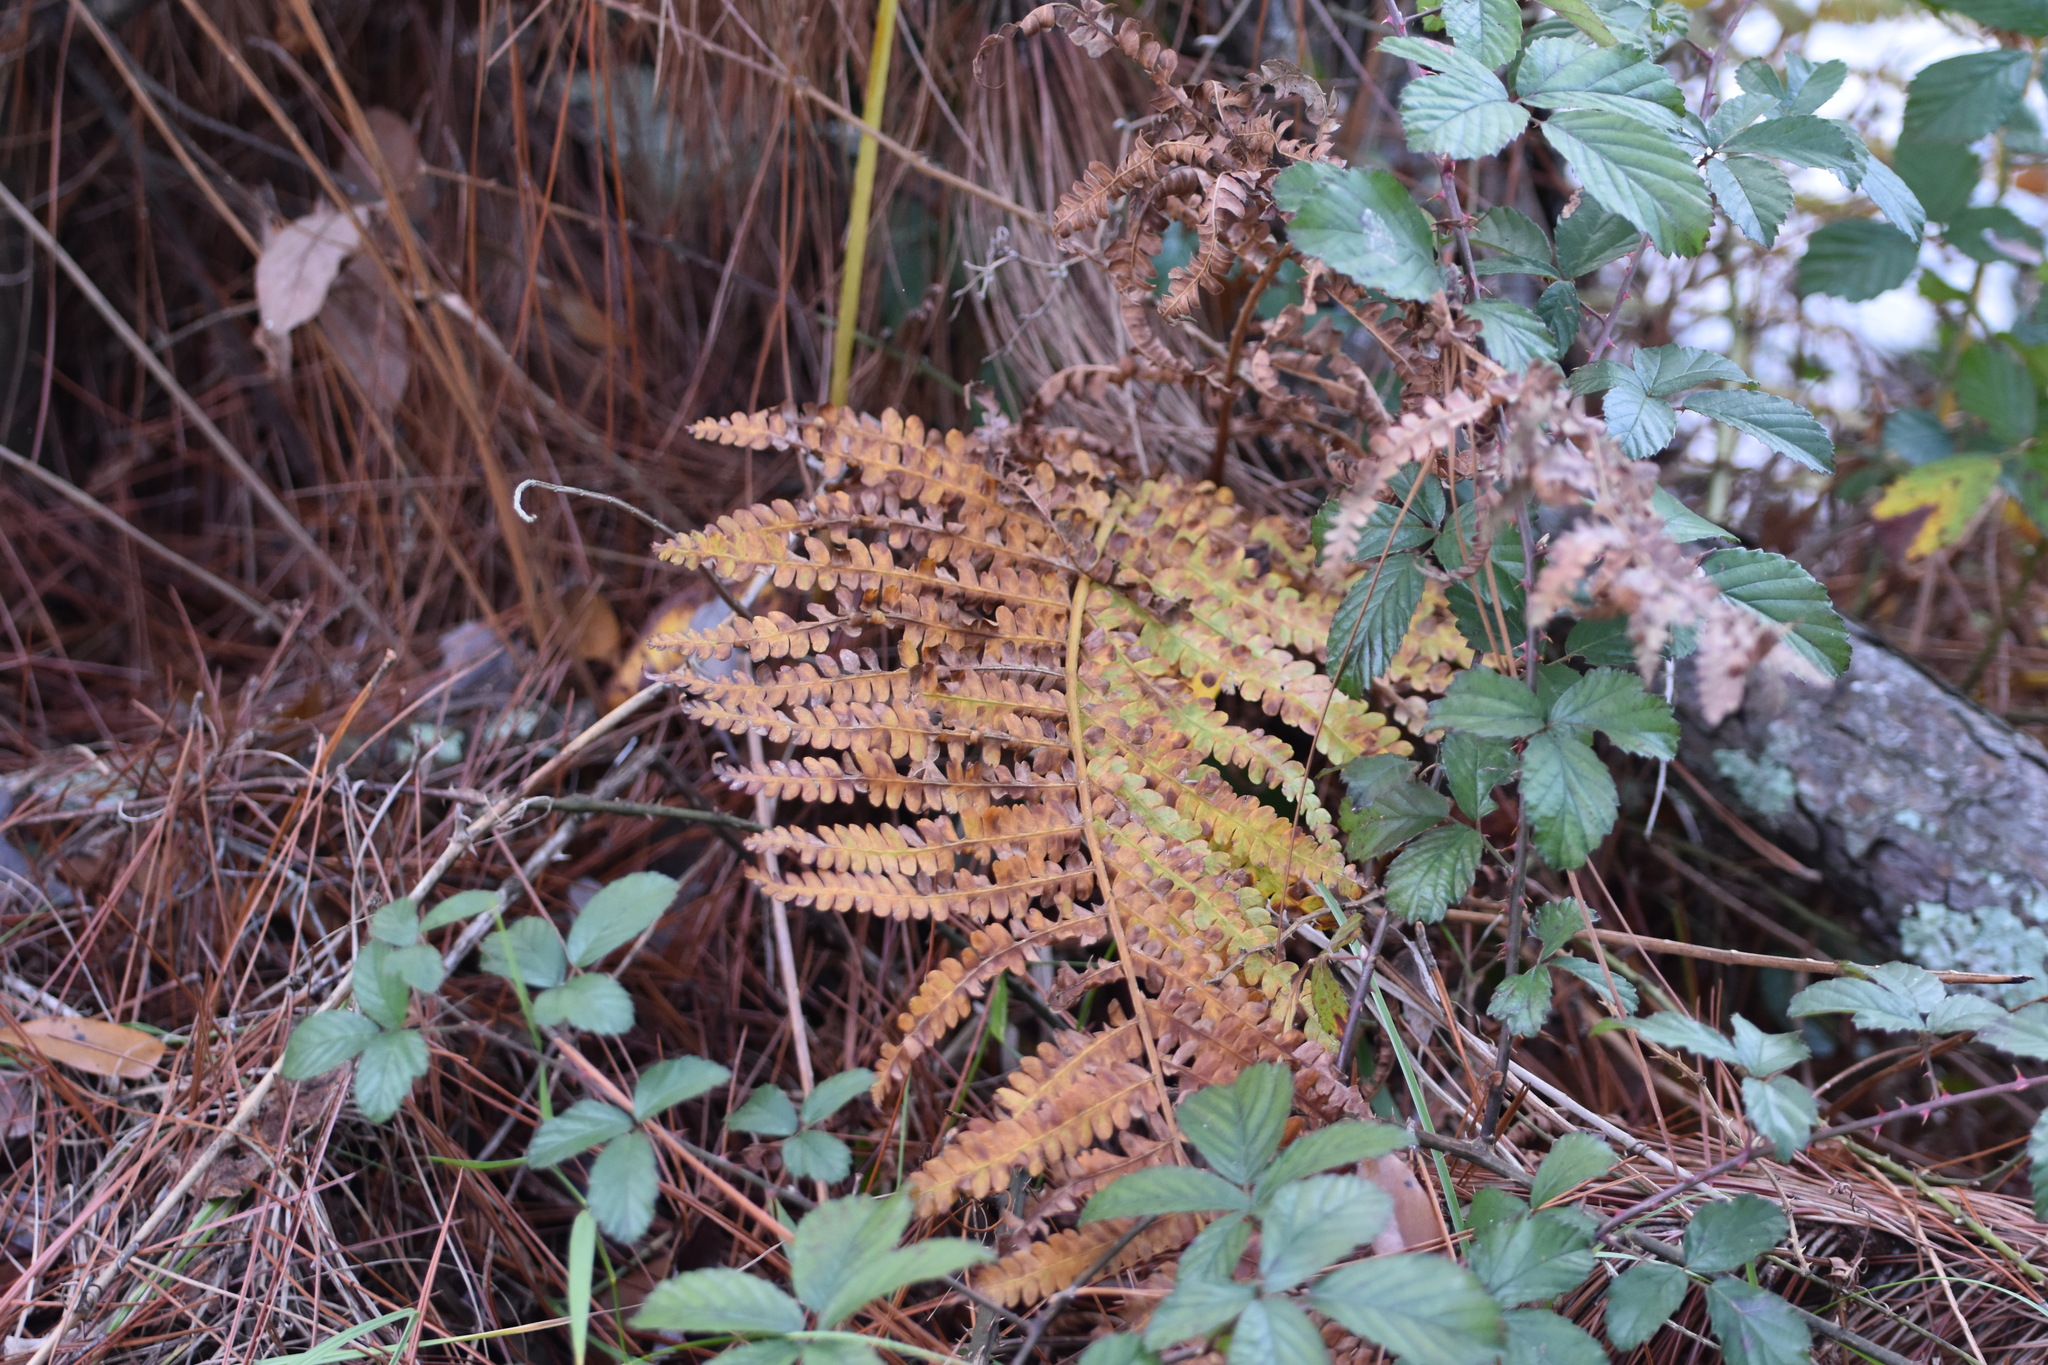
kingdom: Plantae
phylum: Tracheophyta
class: Polypodiopsida
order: Osmundales
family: Osmundaceae
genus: Osmundastrum
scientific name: Osmundastrum cinnamomeum
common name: Cinnamon fern
